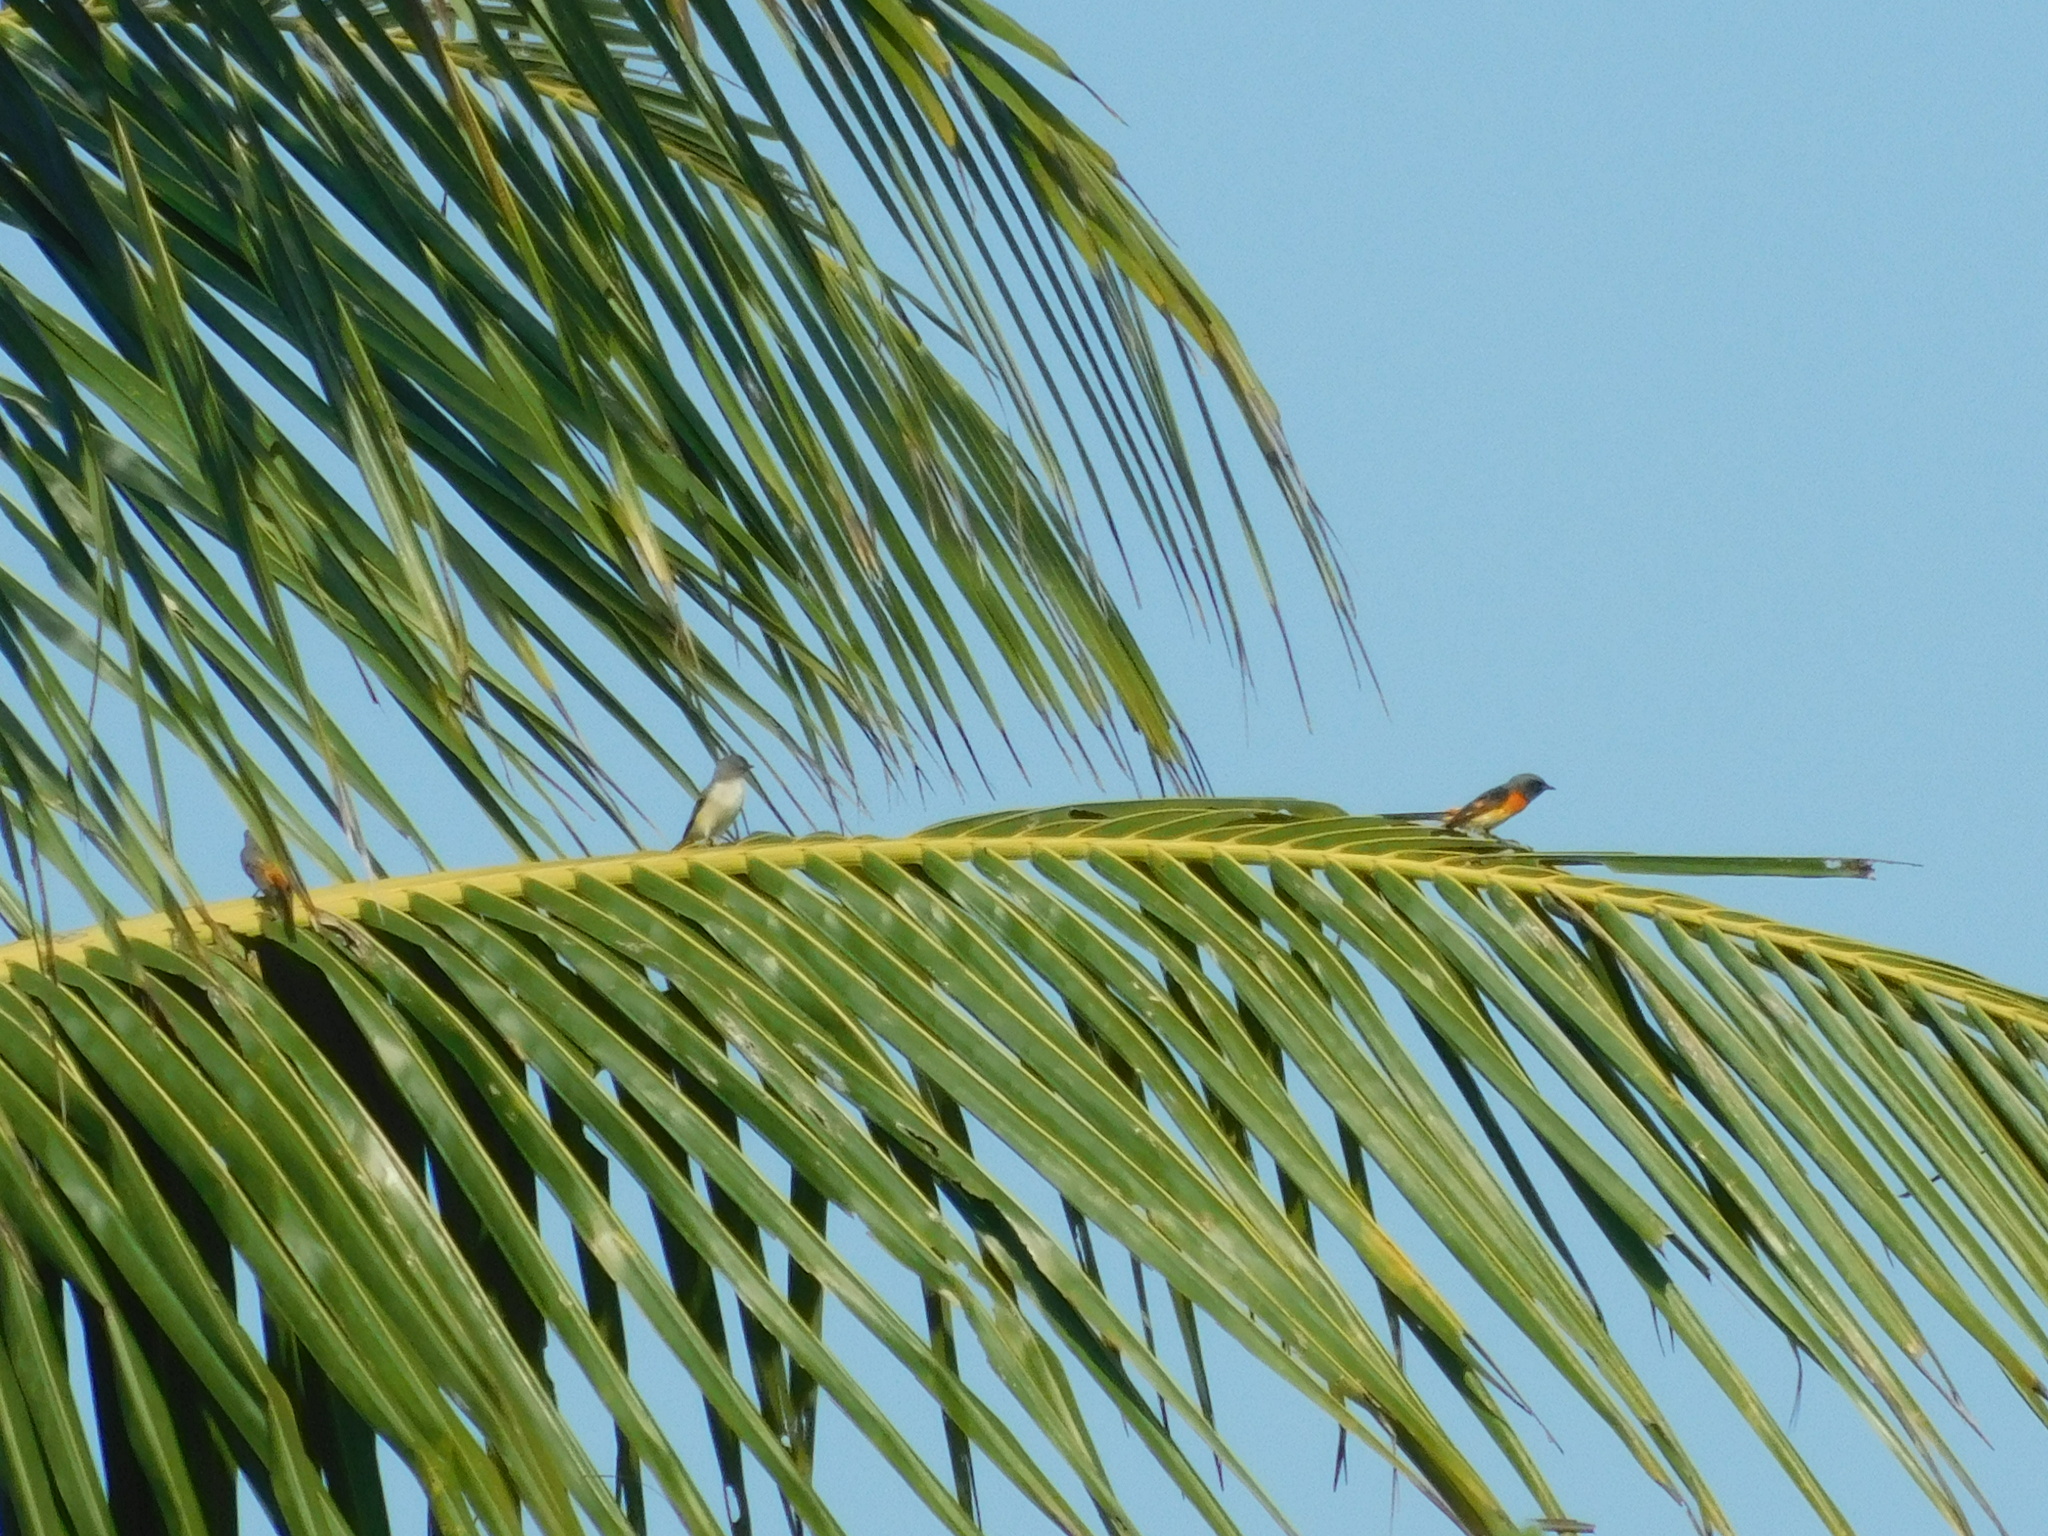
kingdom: Animalia
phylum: Chordata
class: Aves
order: Passeriformes
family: Campephagidae
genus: Pericrocotus
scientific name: Pericrocotus cinnamomeus
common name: Small minivet
